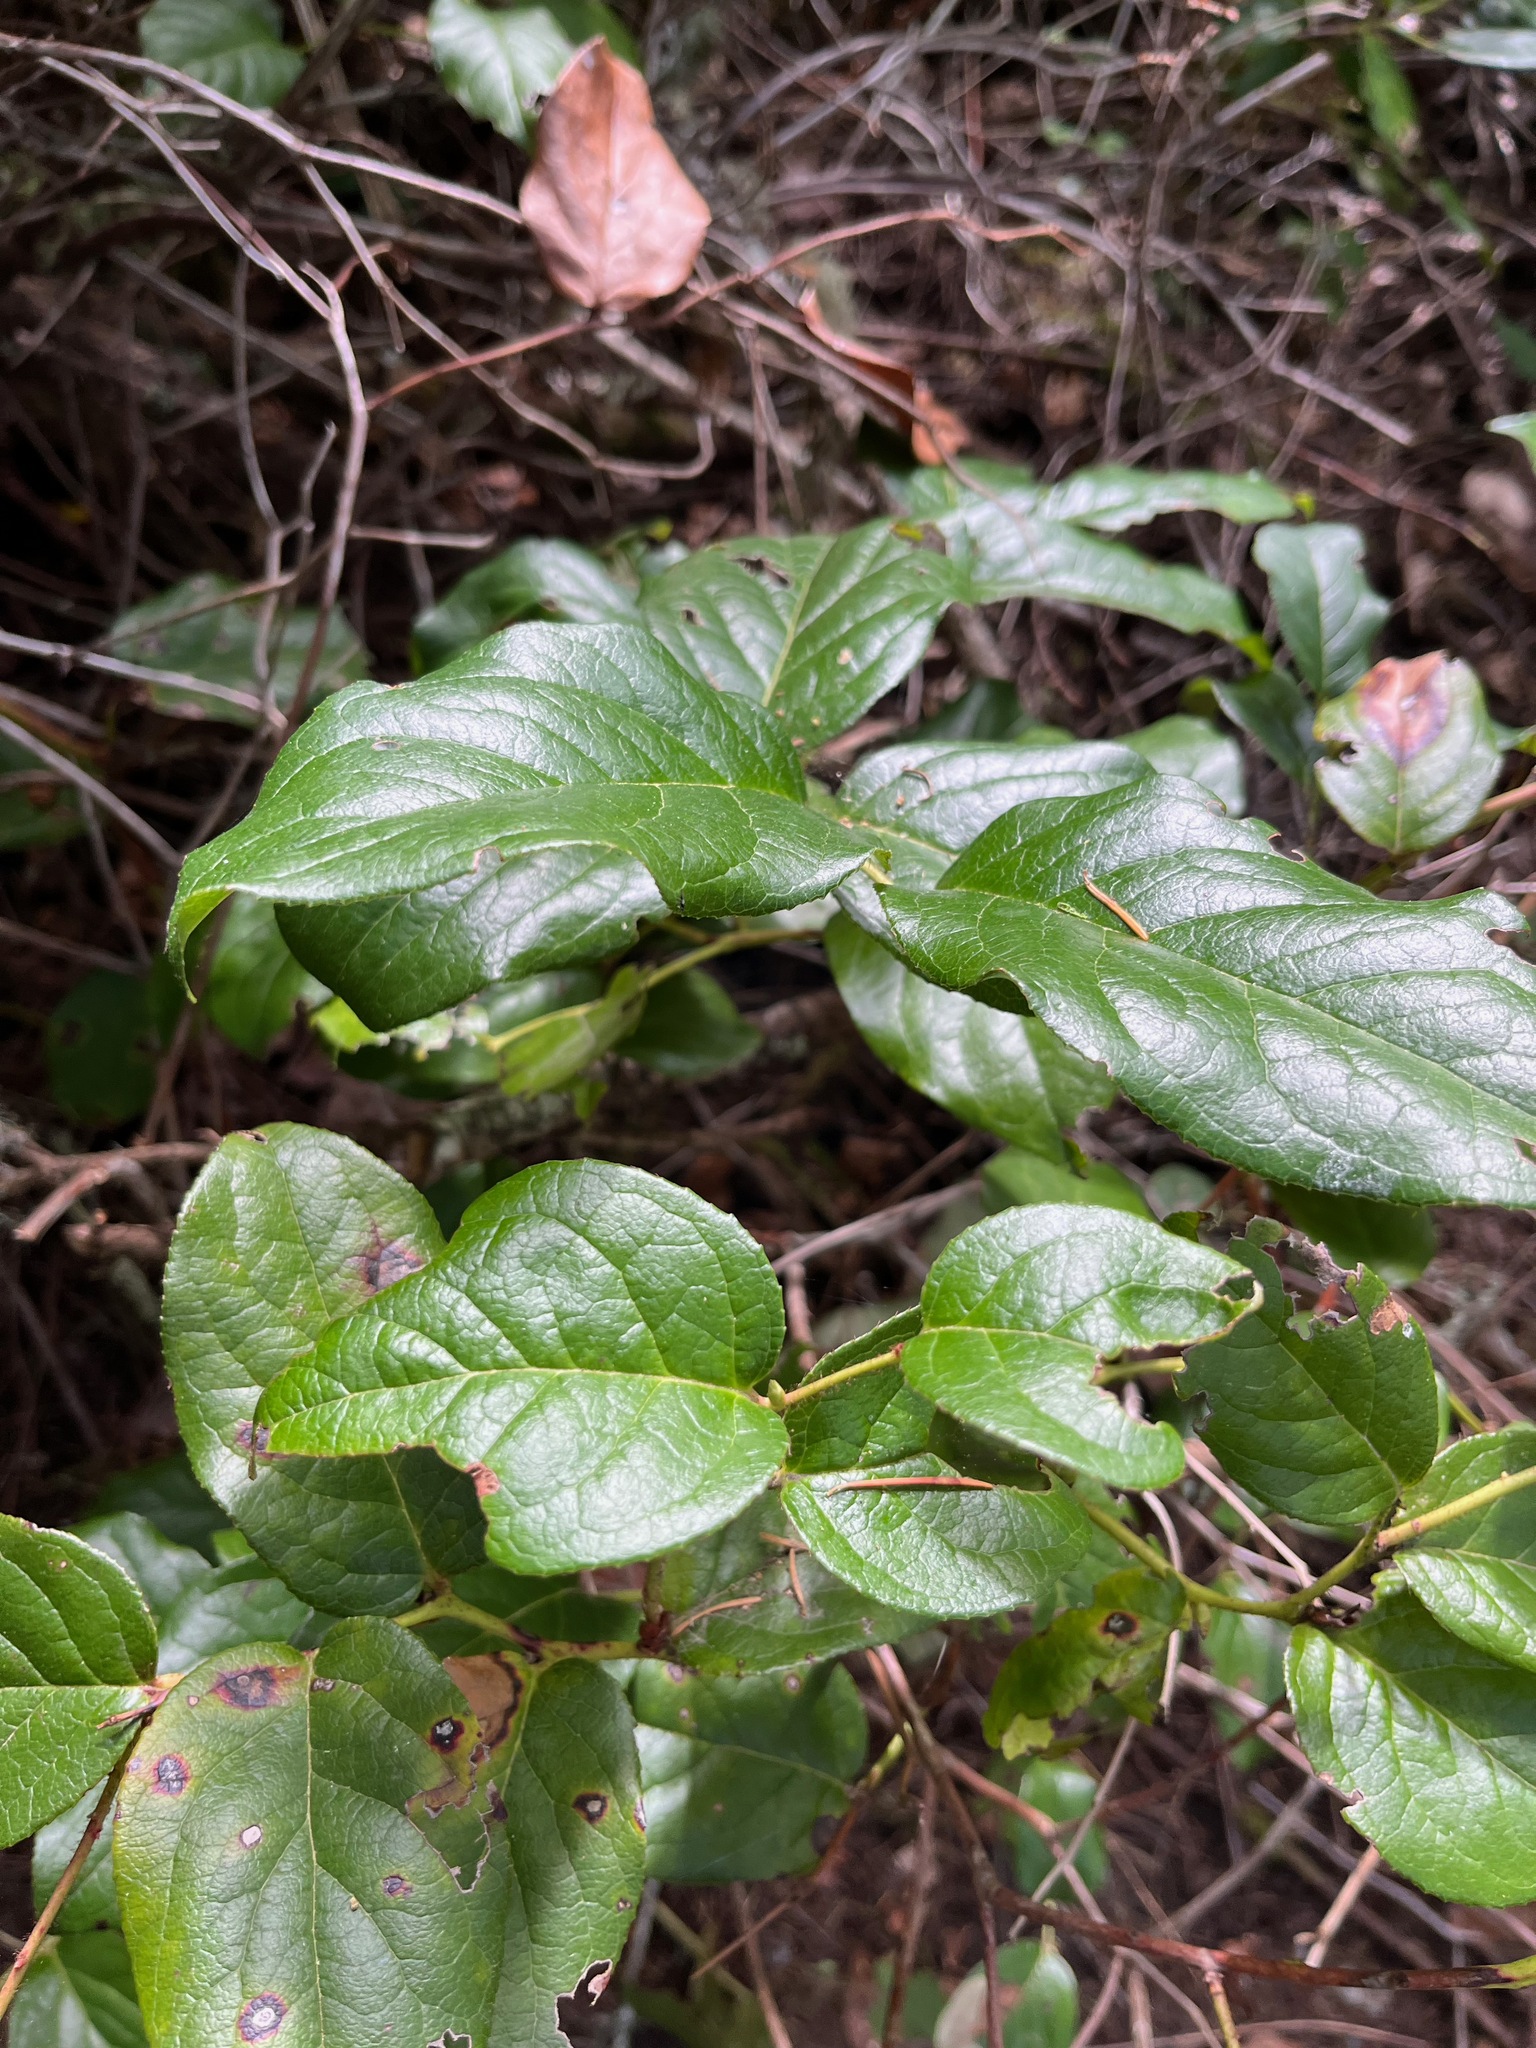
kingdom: Plantae
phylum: Tracheophyta
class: Magnoliopsida
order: Ericales
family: Ericaceae
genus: Gaultheria
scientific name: Gaultheria shallon
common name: Shallon
